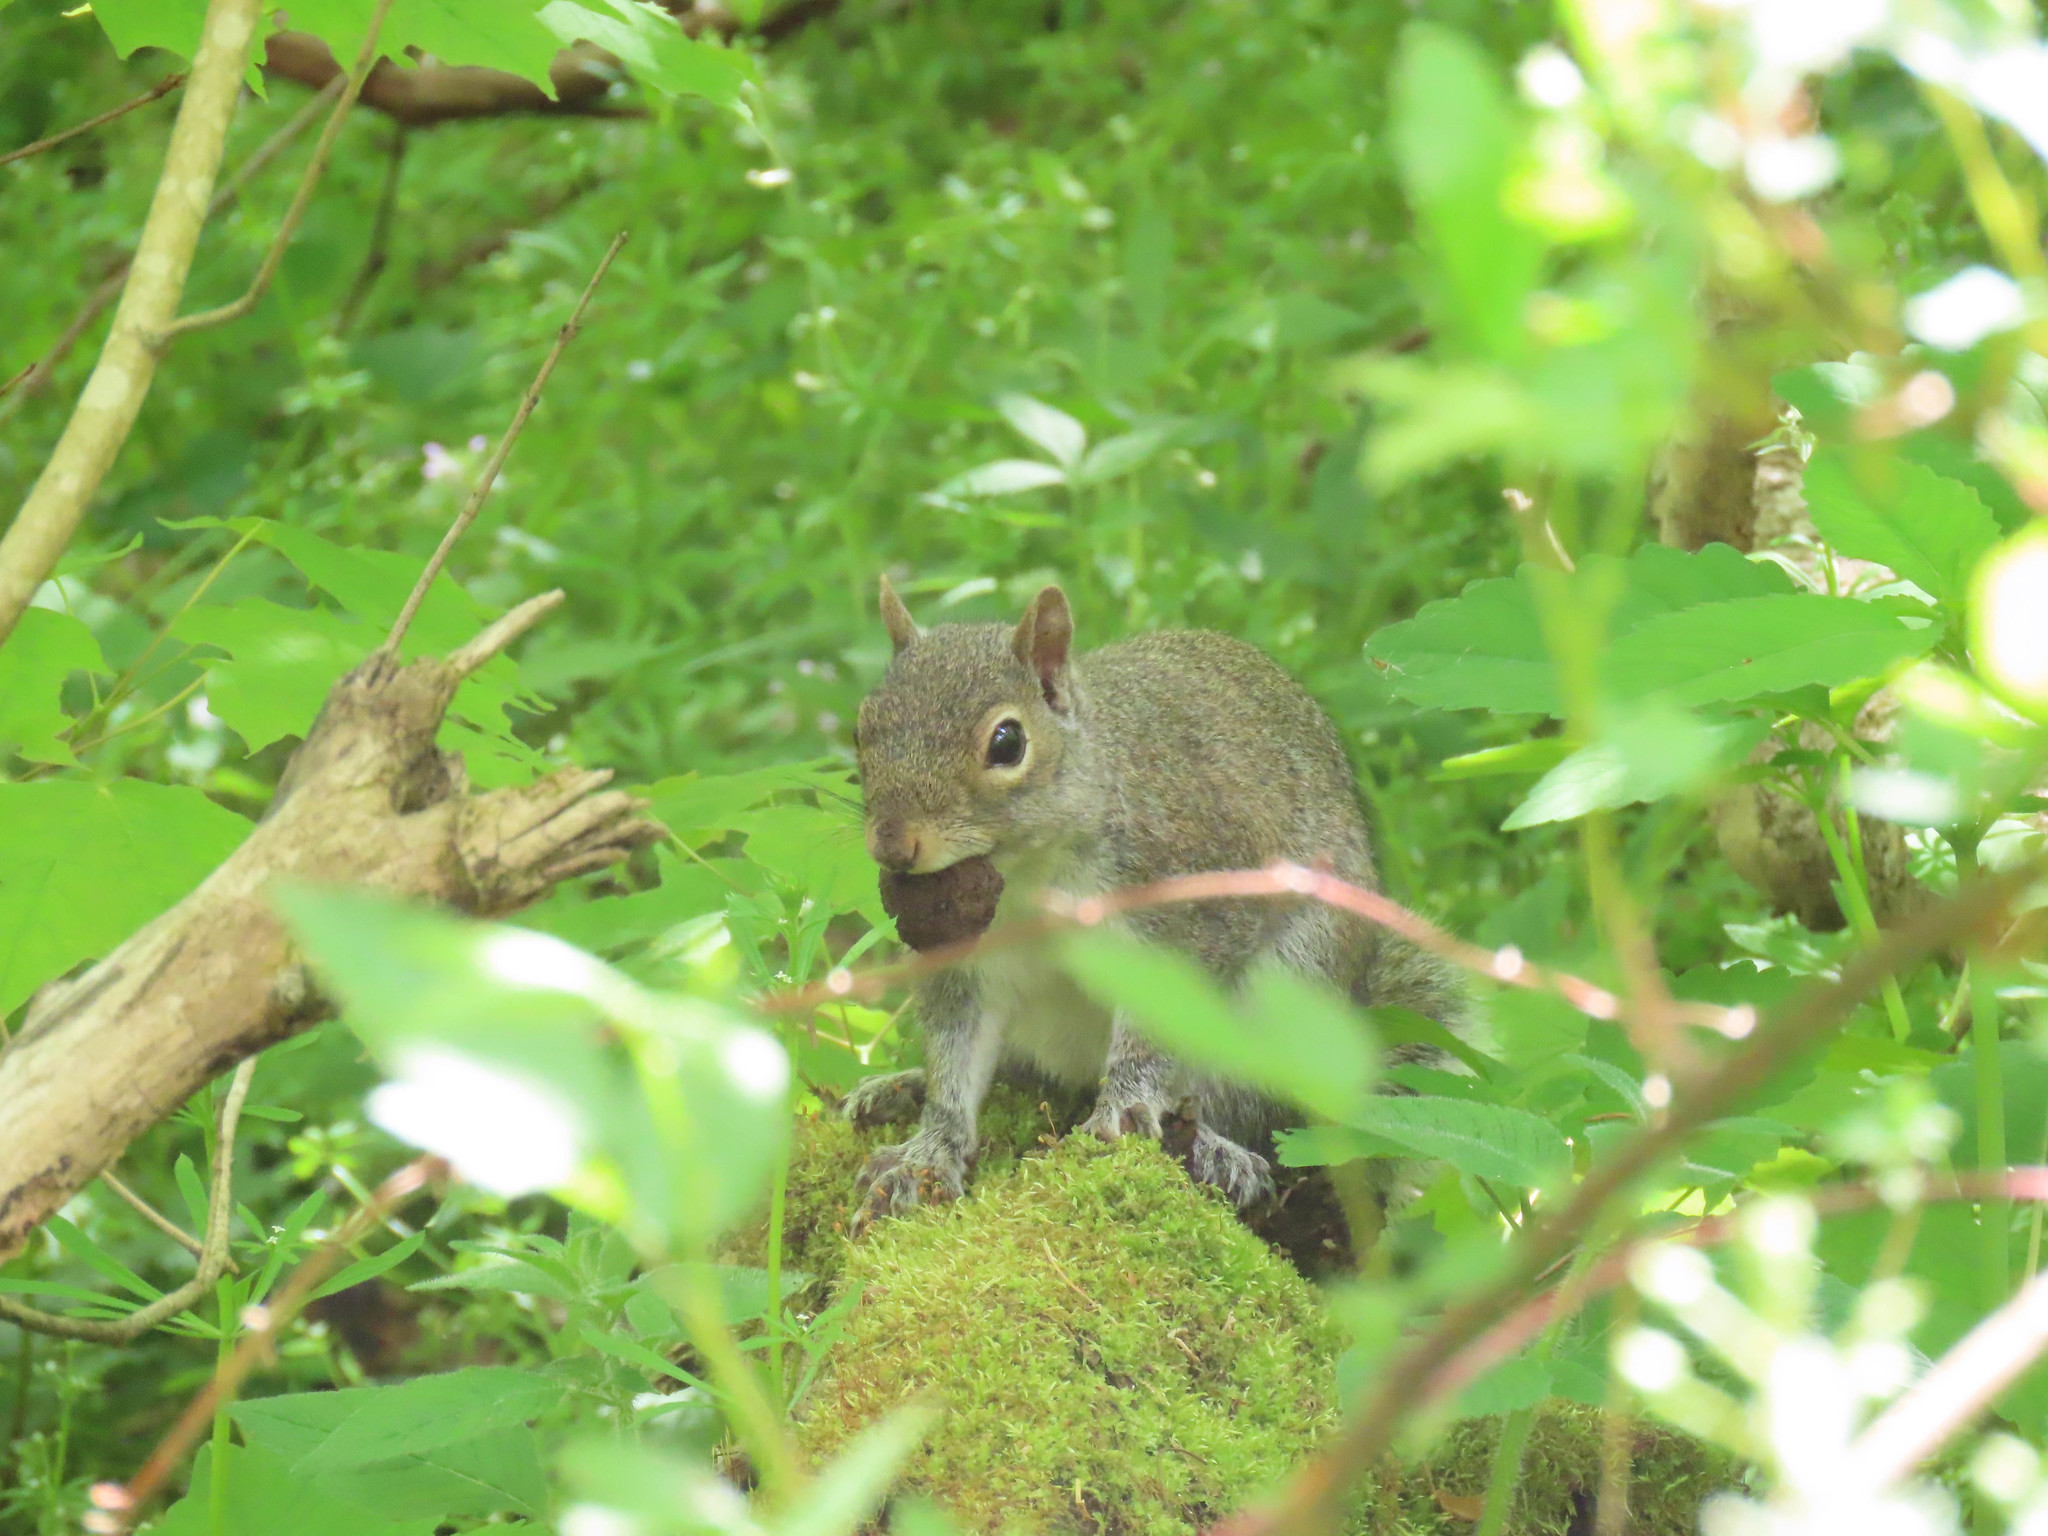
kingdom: Animalia
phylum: Chordata
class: Mammalia
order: Rodentia
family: Sciuridae
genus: Sciurus
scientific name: Sciurus carolinensis
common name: Eastern gray squirrel
